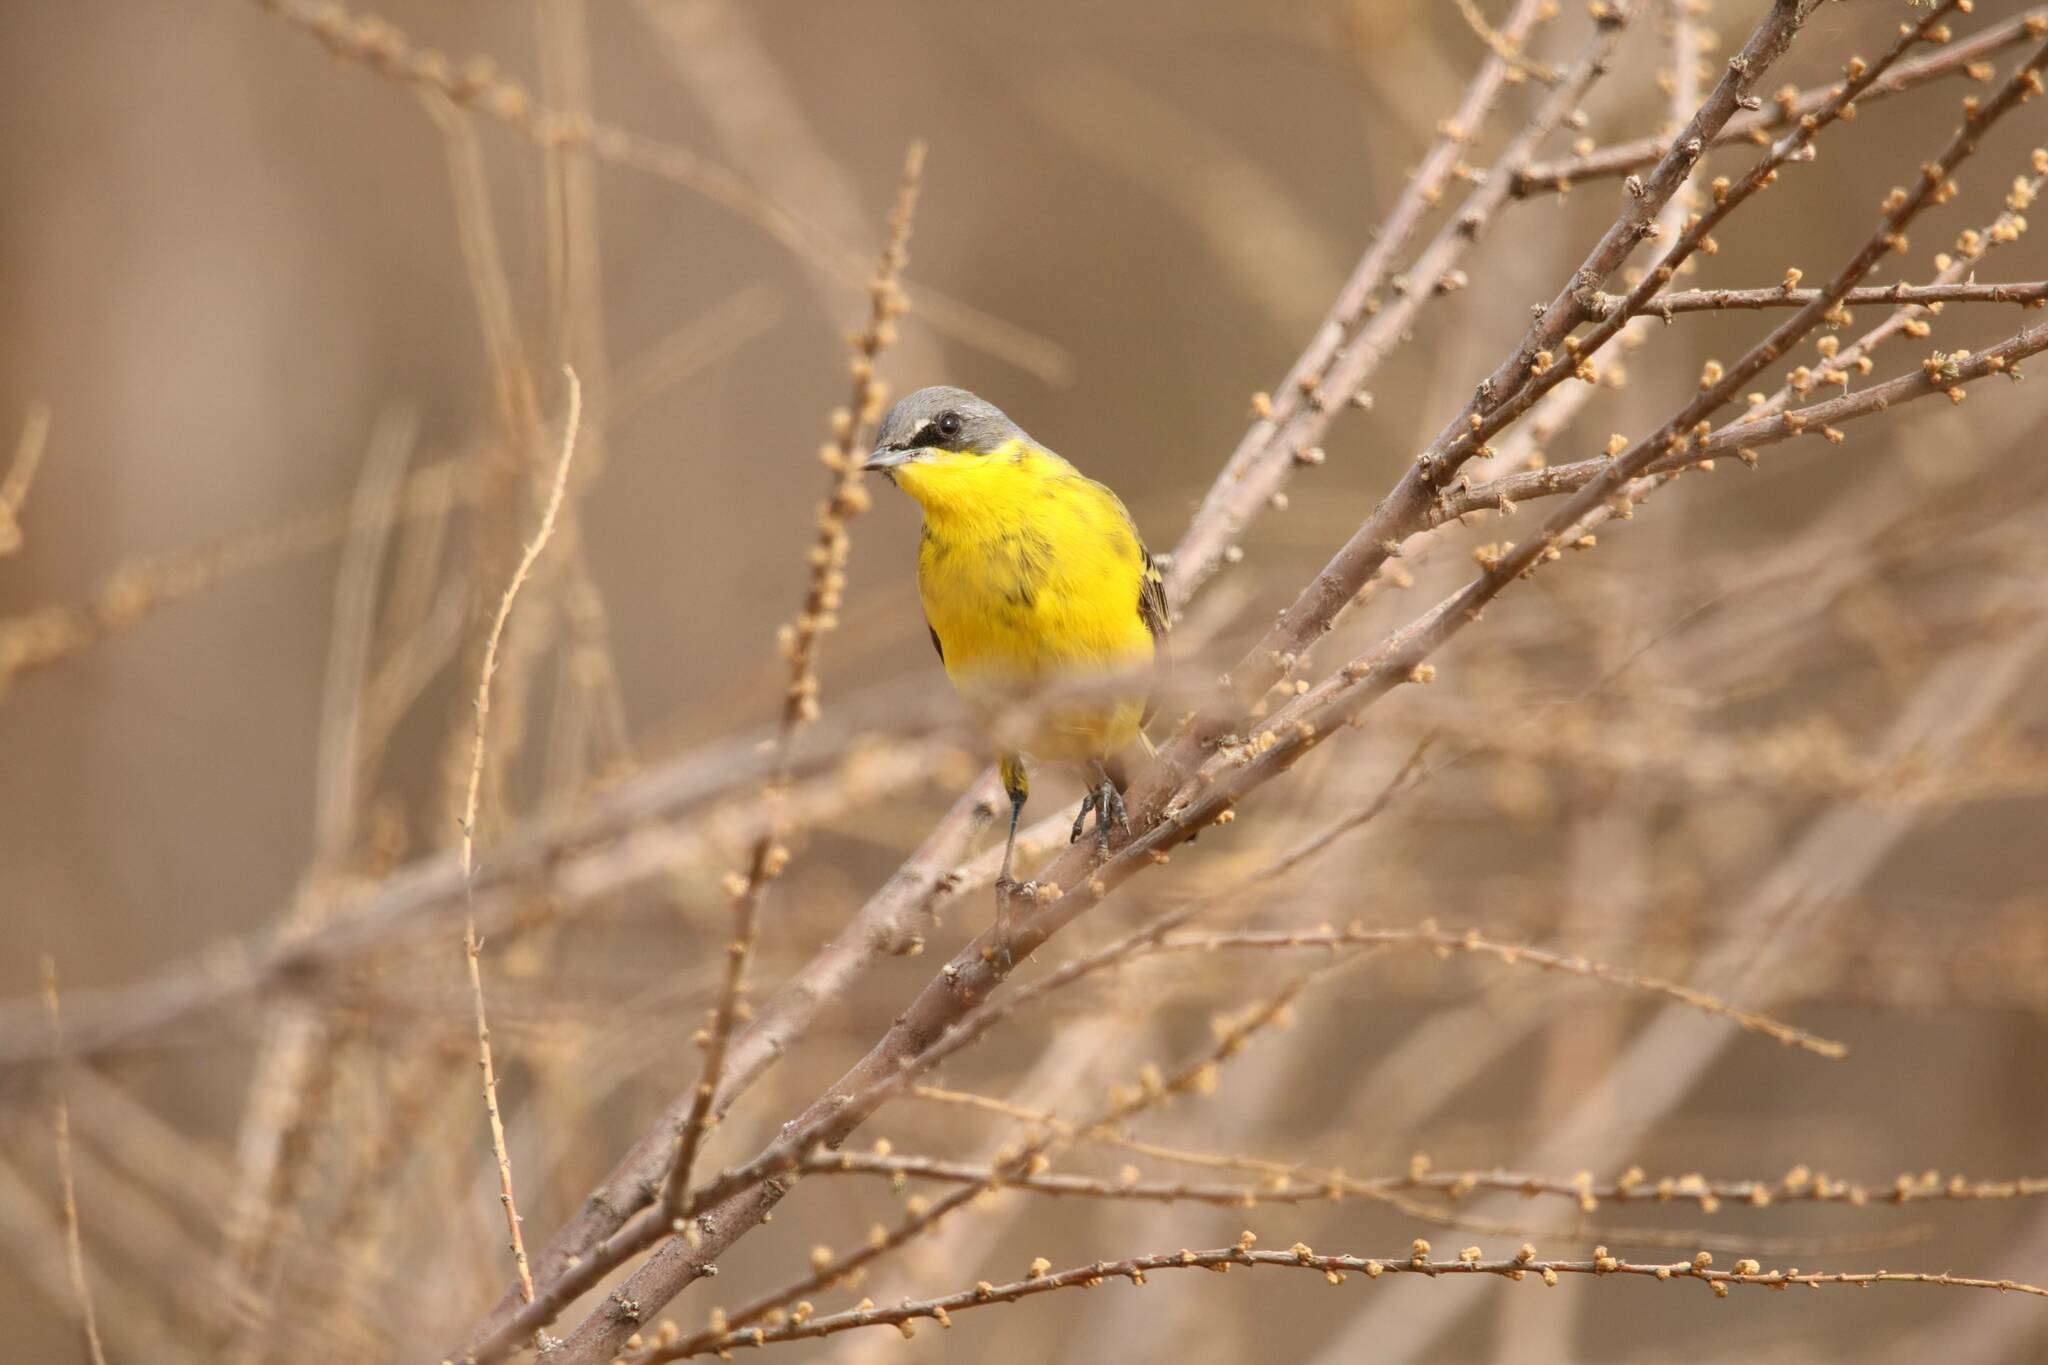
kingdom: Animalia
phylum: Chordata
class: Aves
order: Passeriformes
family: Motacillidae
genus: Motacilla
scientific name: Motacilla flava
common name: Western yellow wagtail
